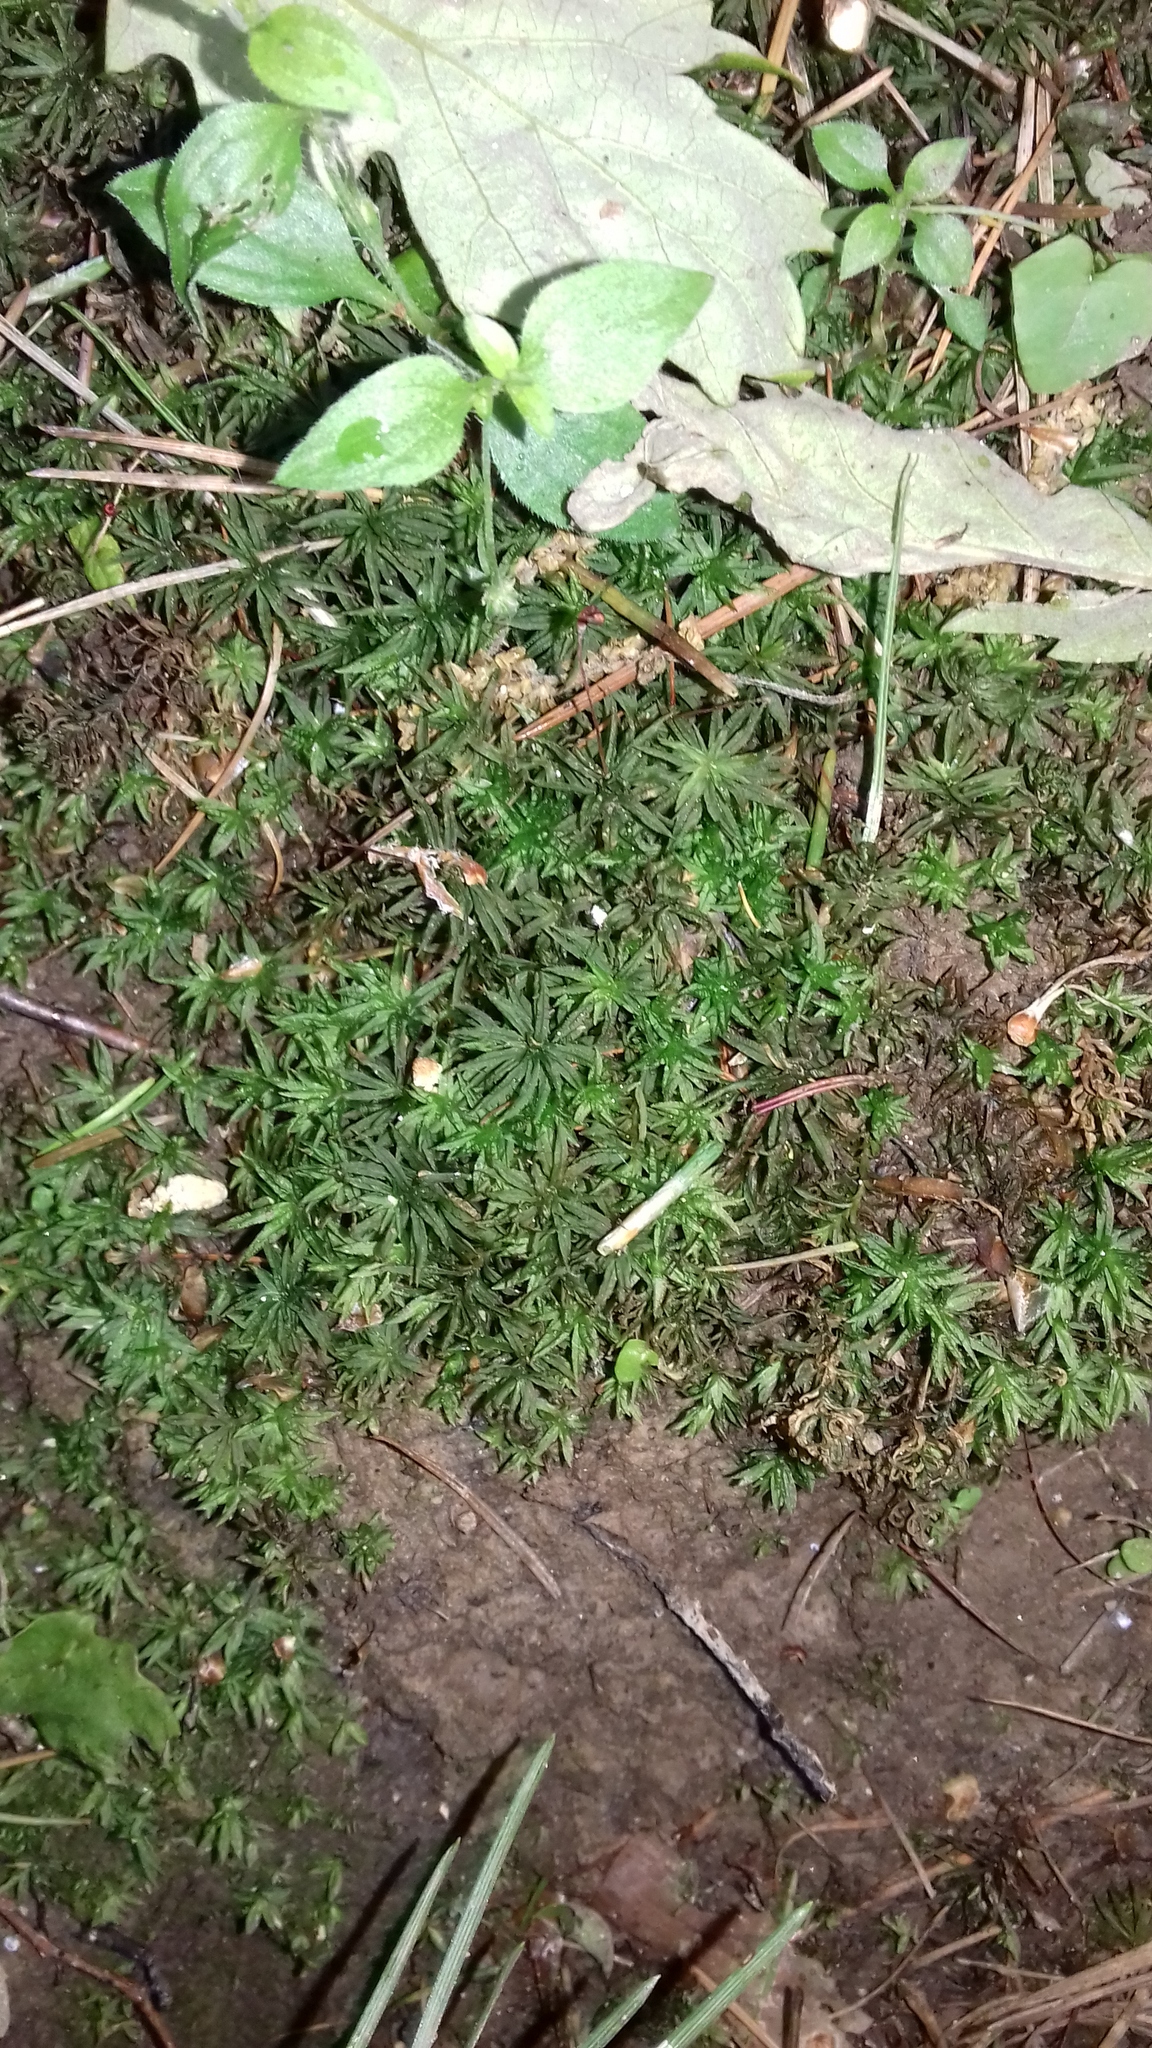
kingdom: Plantae
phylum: Bryophyta
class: Polytrichopsida
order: Polytrichales
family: Polytrichaceae
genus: Atrichum
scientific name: Atrichum undulatum
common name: Common smoothcap
